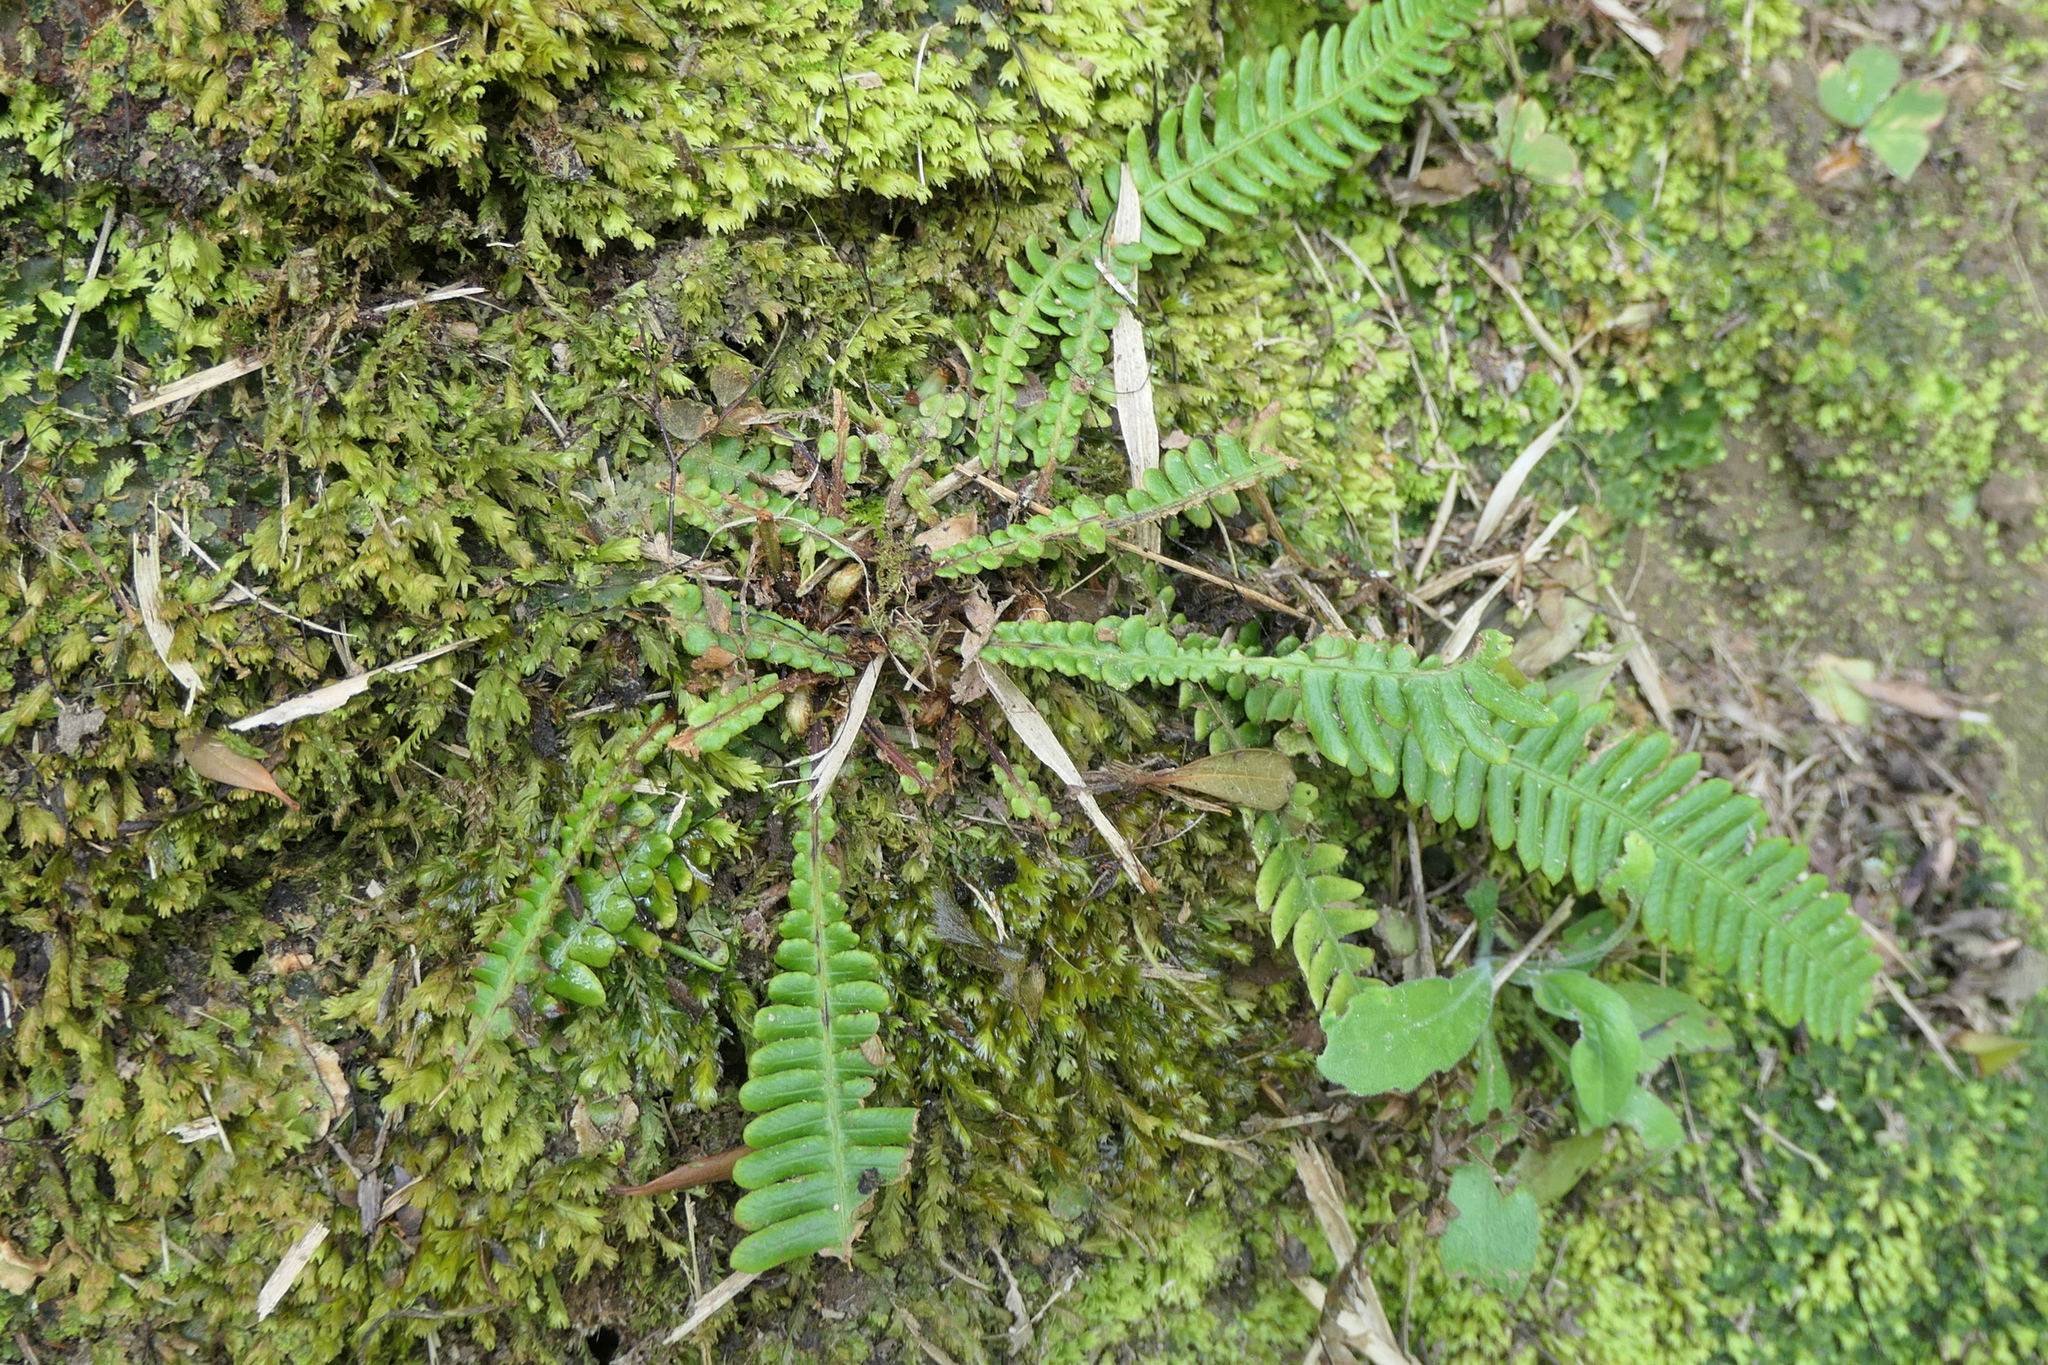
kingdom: Plantae
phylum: Tracheophyta
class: Polypodiopsida
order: Polypodiales
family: Blechnaceae
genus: Struthiopteris
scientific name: Struthiopteris spicant
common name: Deer fern
